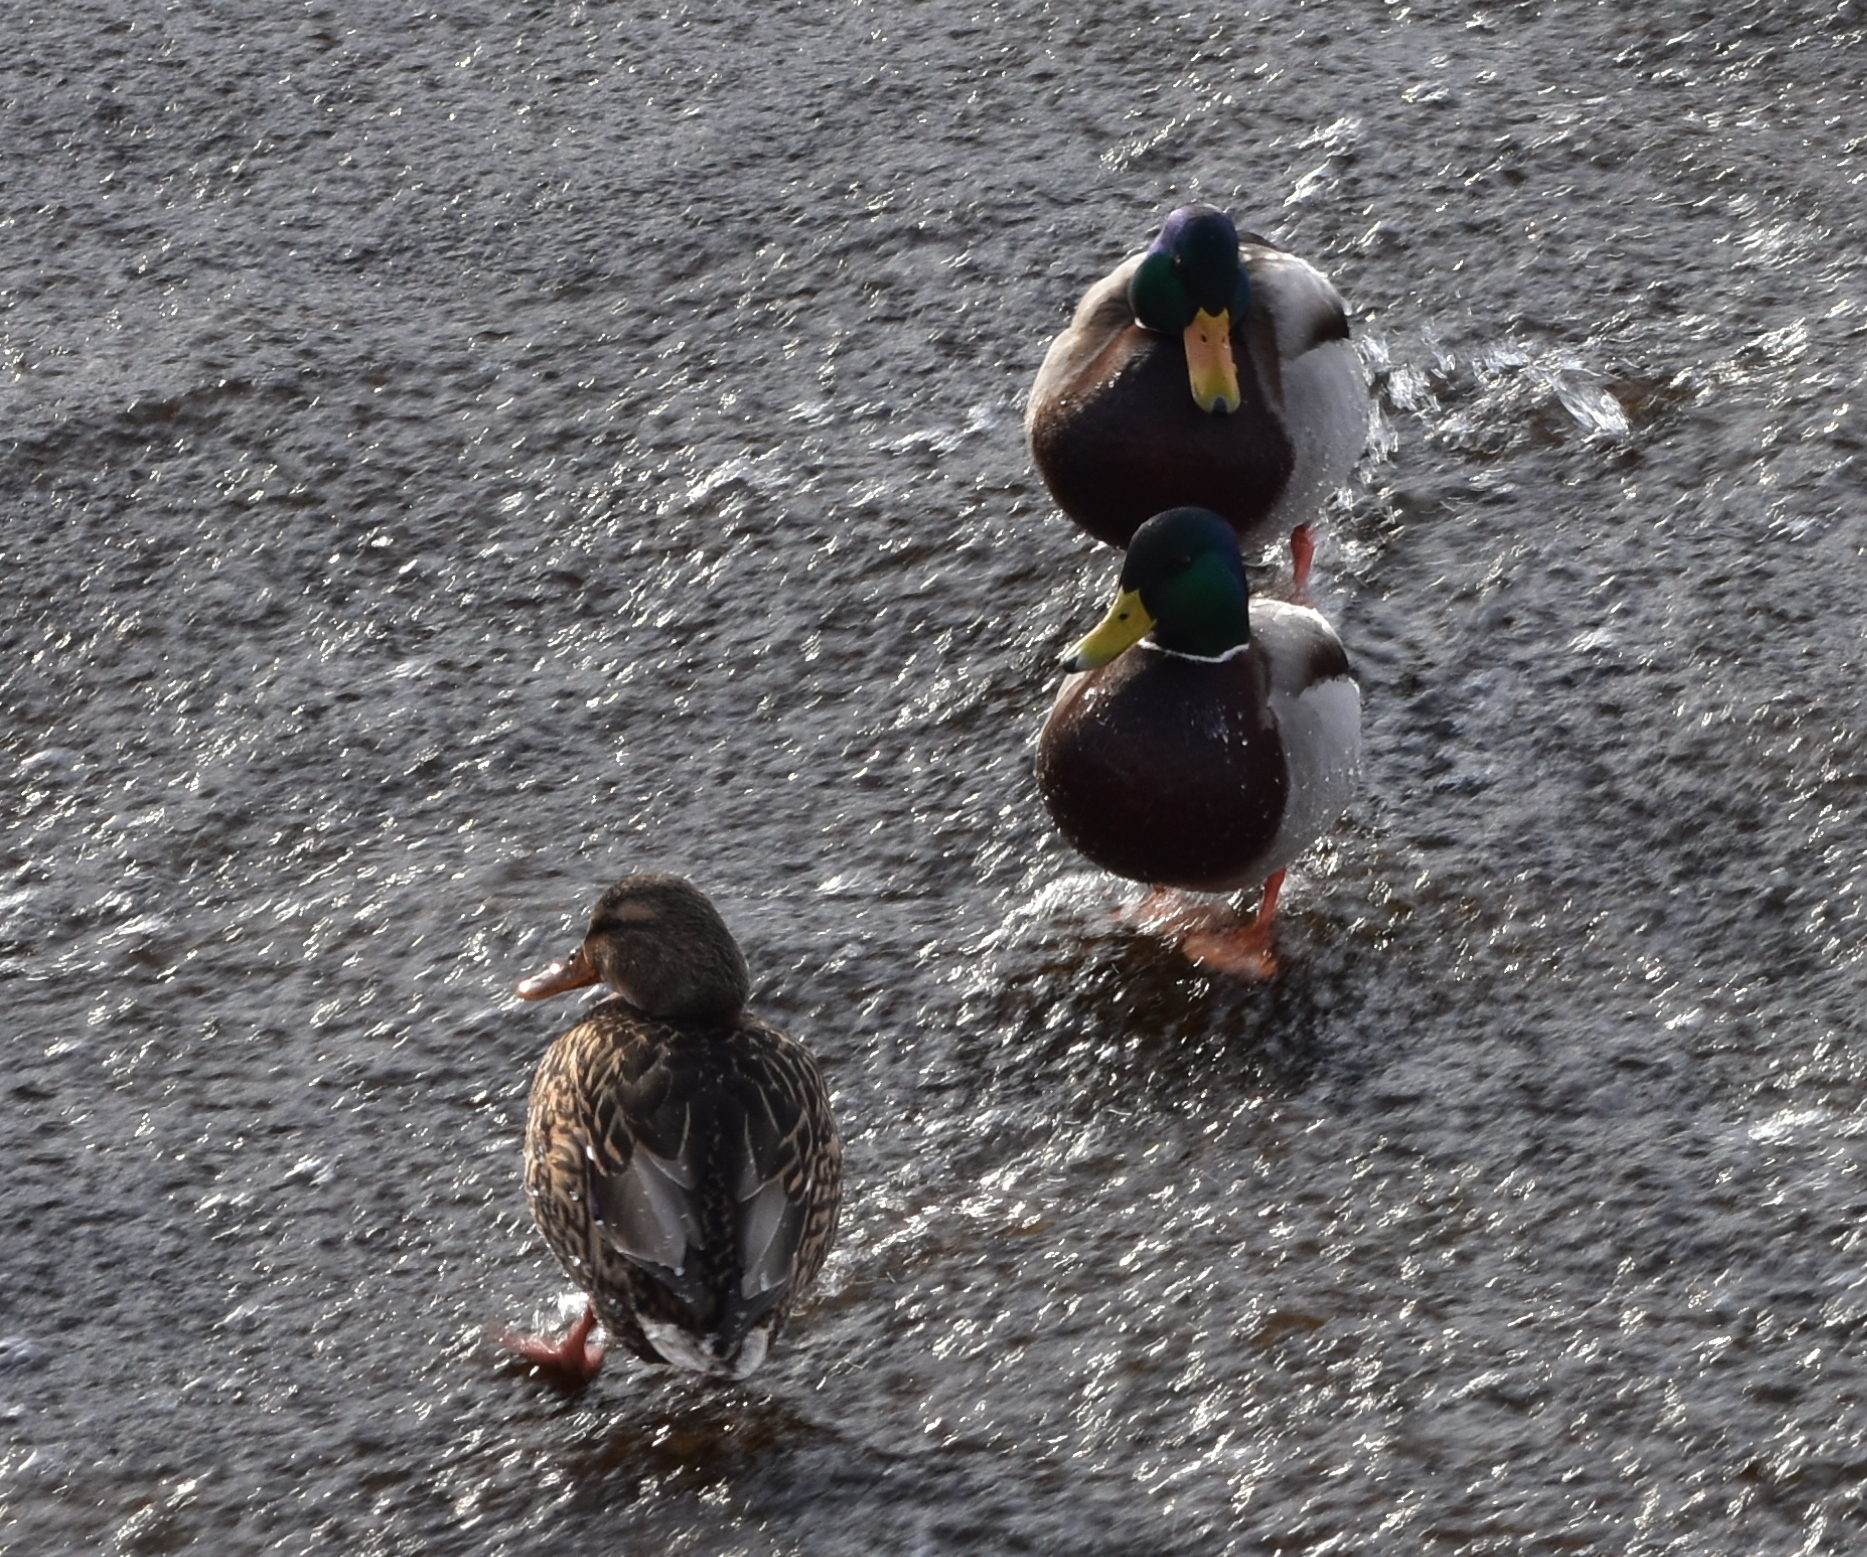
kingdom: Animalia
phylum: Chordata
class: Aves
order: Anseriformes
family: Anatidae
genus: Anas
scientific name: Anas platyrhynchos
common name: Mallard
